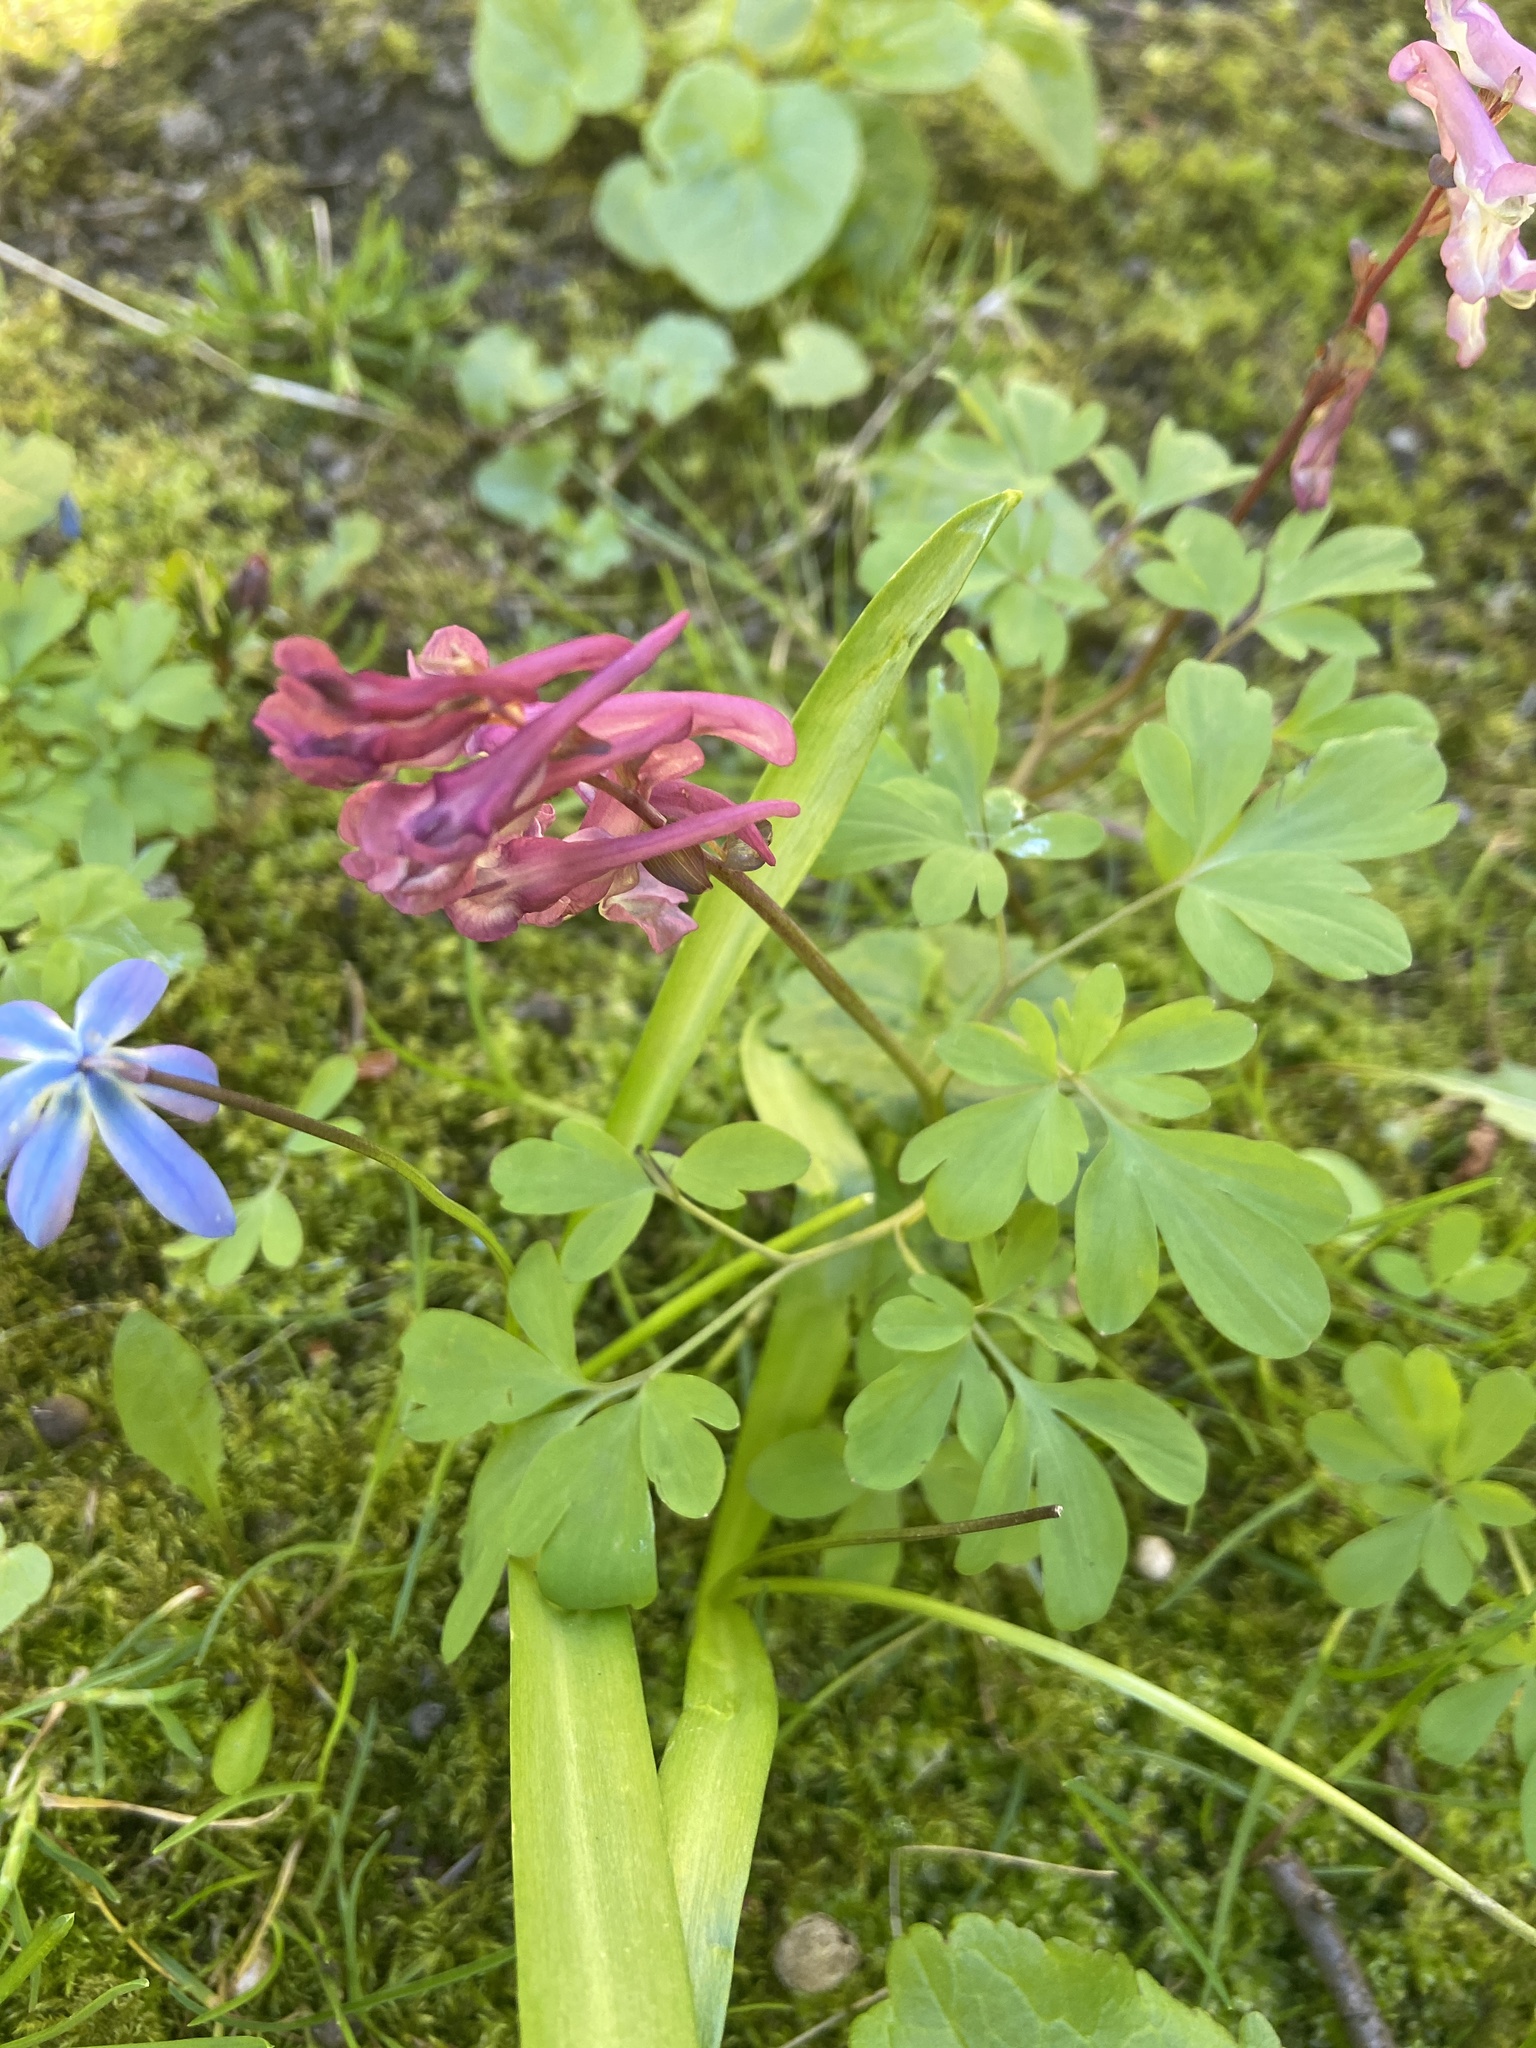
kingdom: Plantae
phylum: Tracheophyta
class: Magnoliopsida
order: Ranunculales
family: Papaveraceae
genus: Corydalis
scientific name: Corydalis cava
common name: Hollowroot
